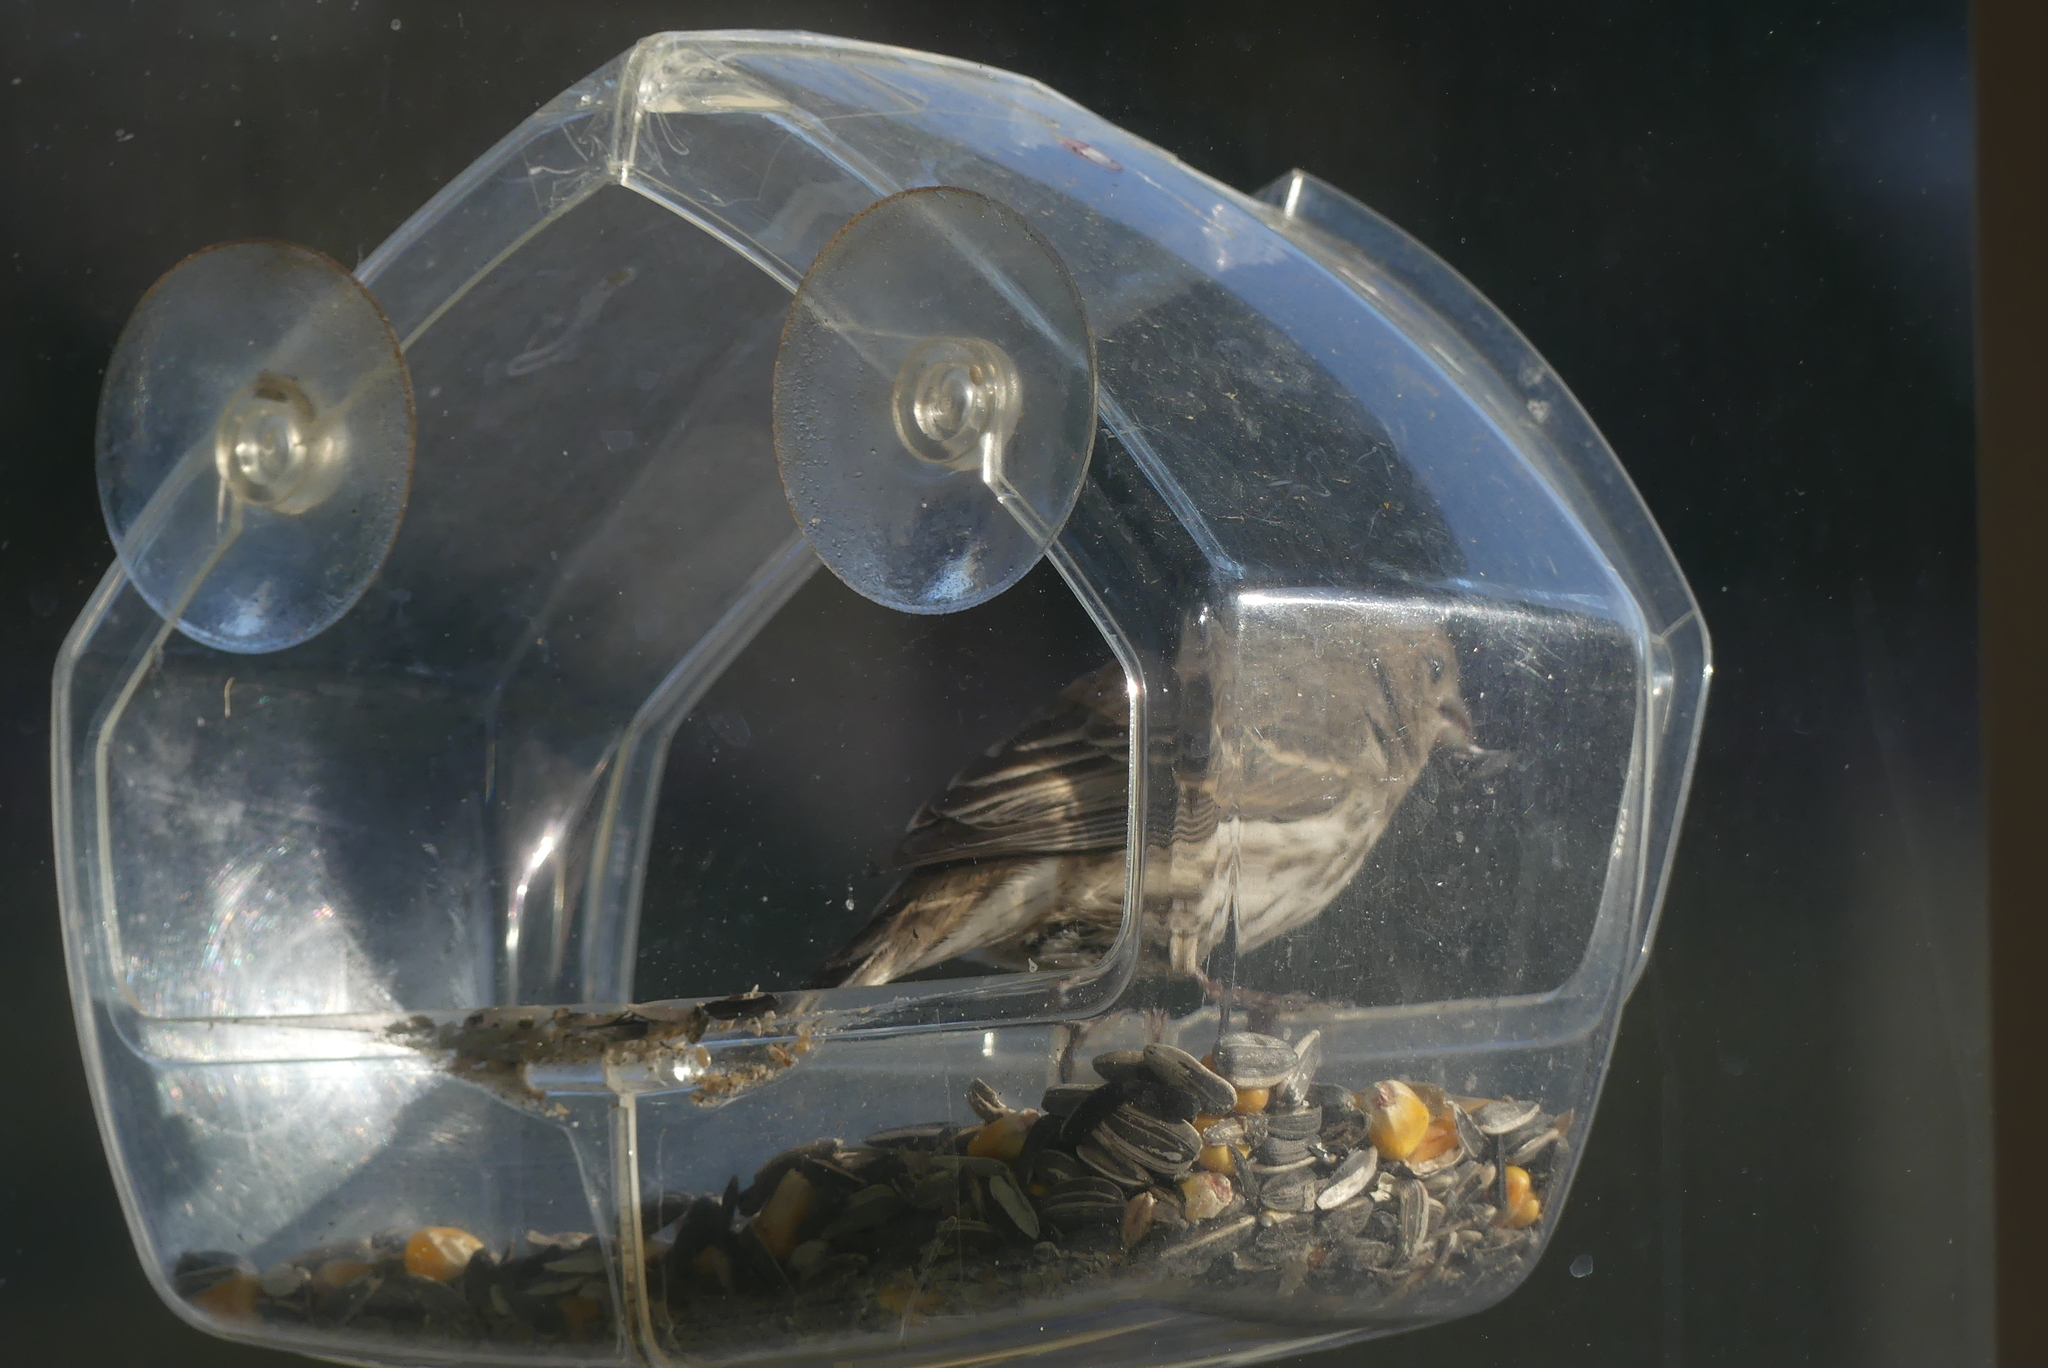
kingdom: Animalia
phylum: Chordata
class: Aves
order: Passeriformes
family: Fringillidae
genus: Haemorhous
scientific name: Haemorhous mexicanus
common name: House finch
